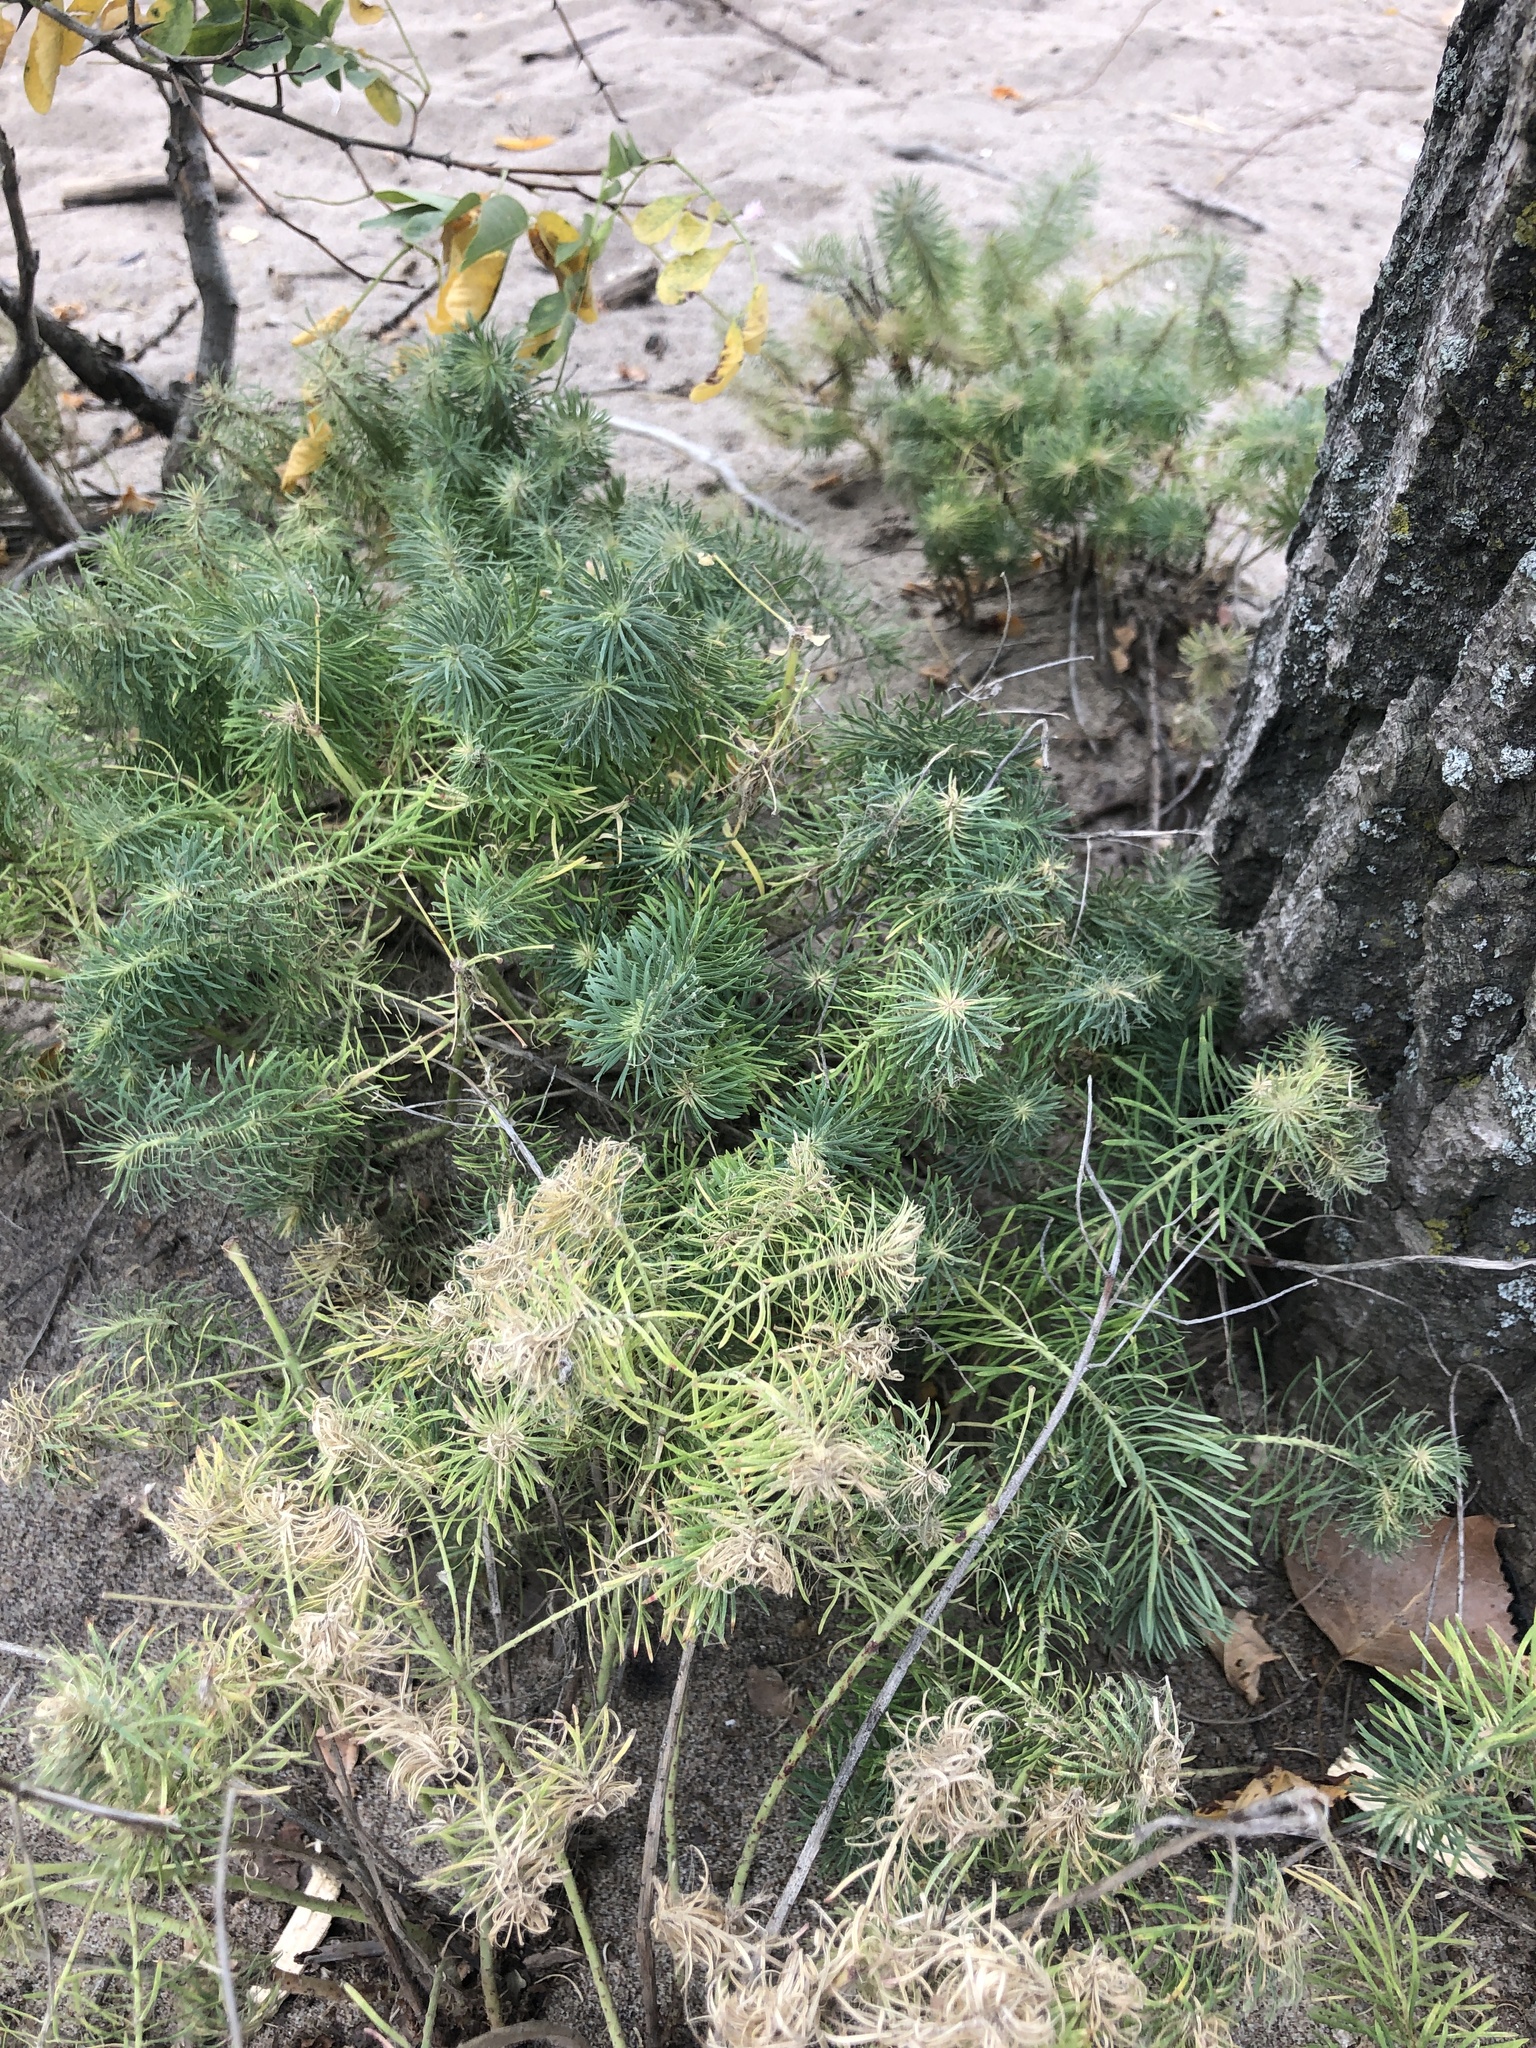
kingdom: Plantae
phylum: Tracheophyta
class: Magnoliopsida
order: Malpighiales
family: Euphorbiaceae
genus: Euphorbia
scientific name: Euphorbia cyparissias
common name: Cypress spurge
